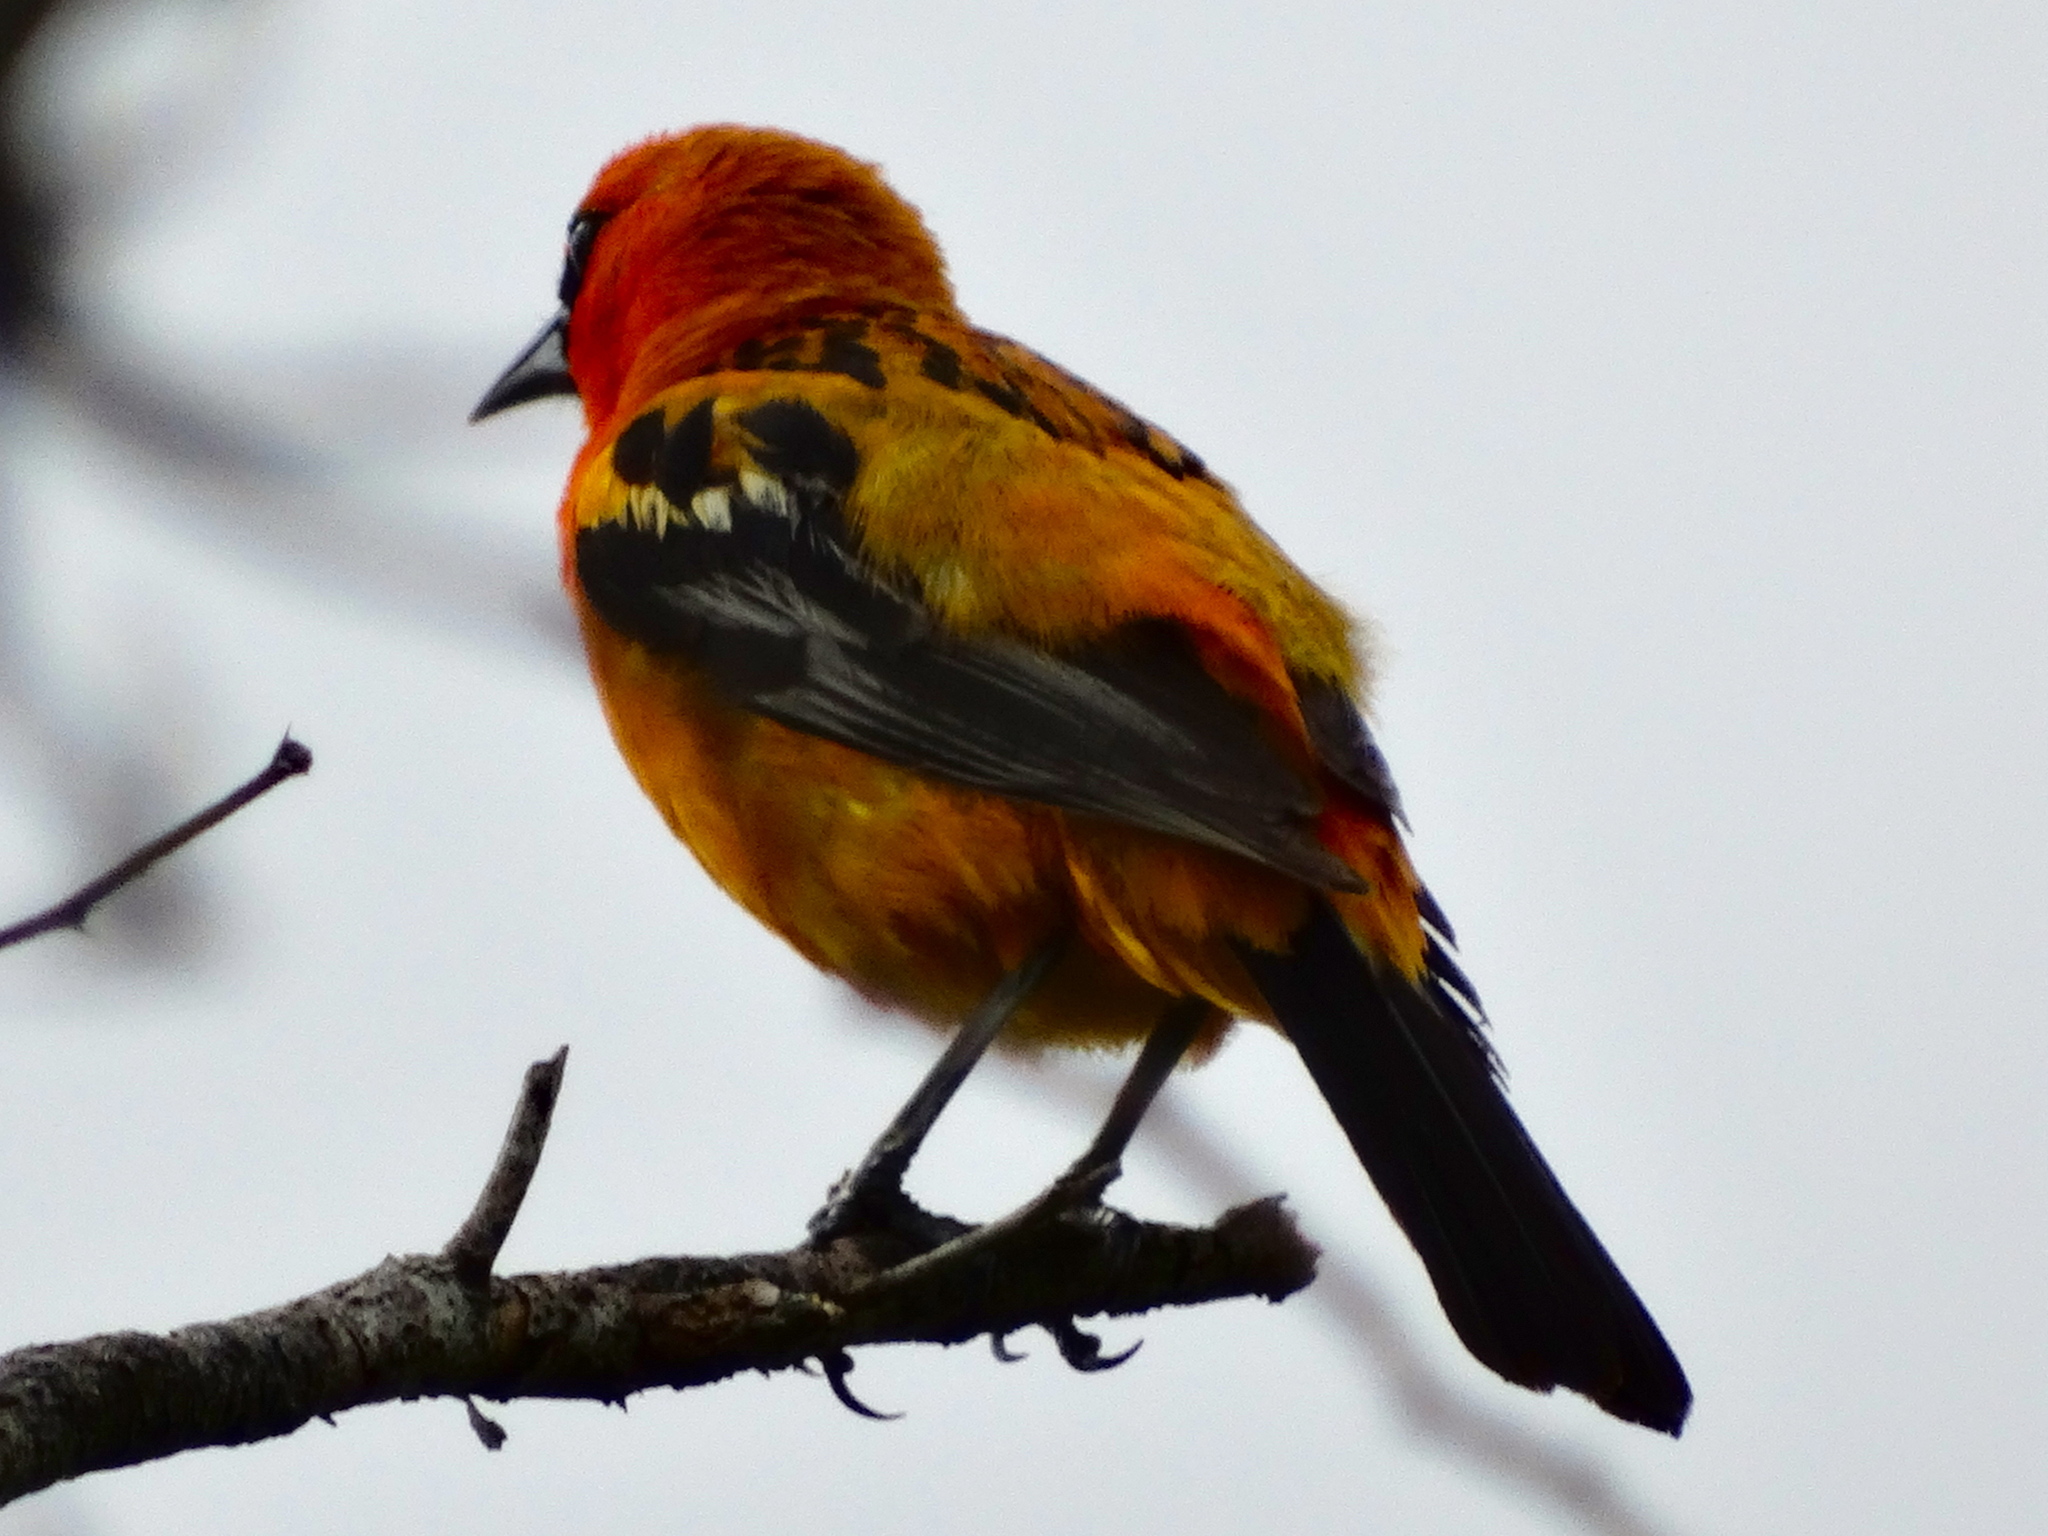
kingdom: Animalia
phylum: Chordata
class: Aves
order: Passeriformes
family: Icteridae
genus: Icterus
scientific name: Icterus pustulatus
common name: Streak-backed oriole
